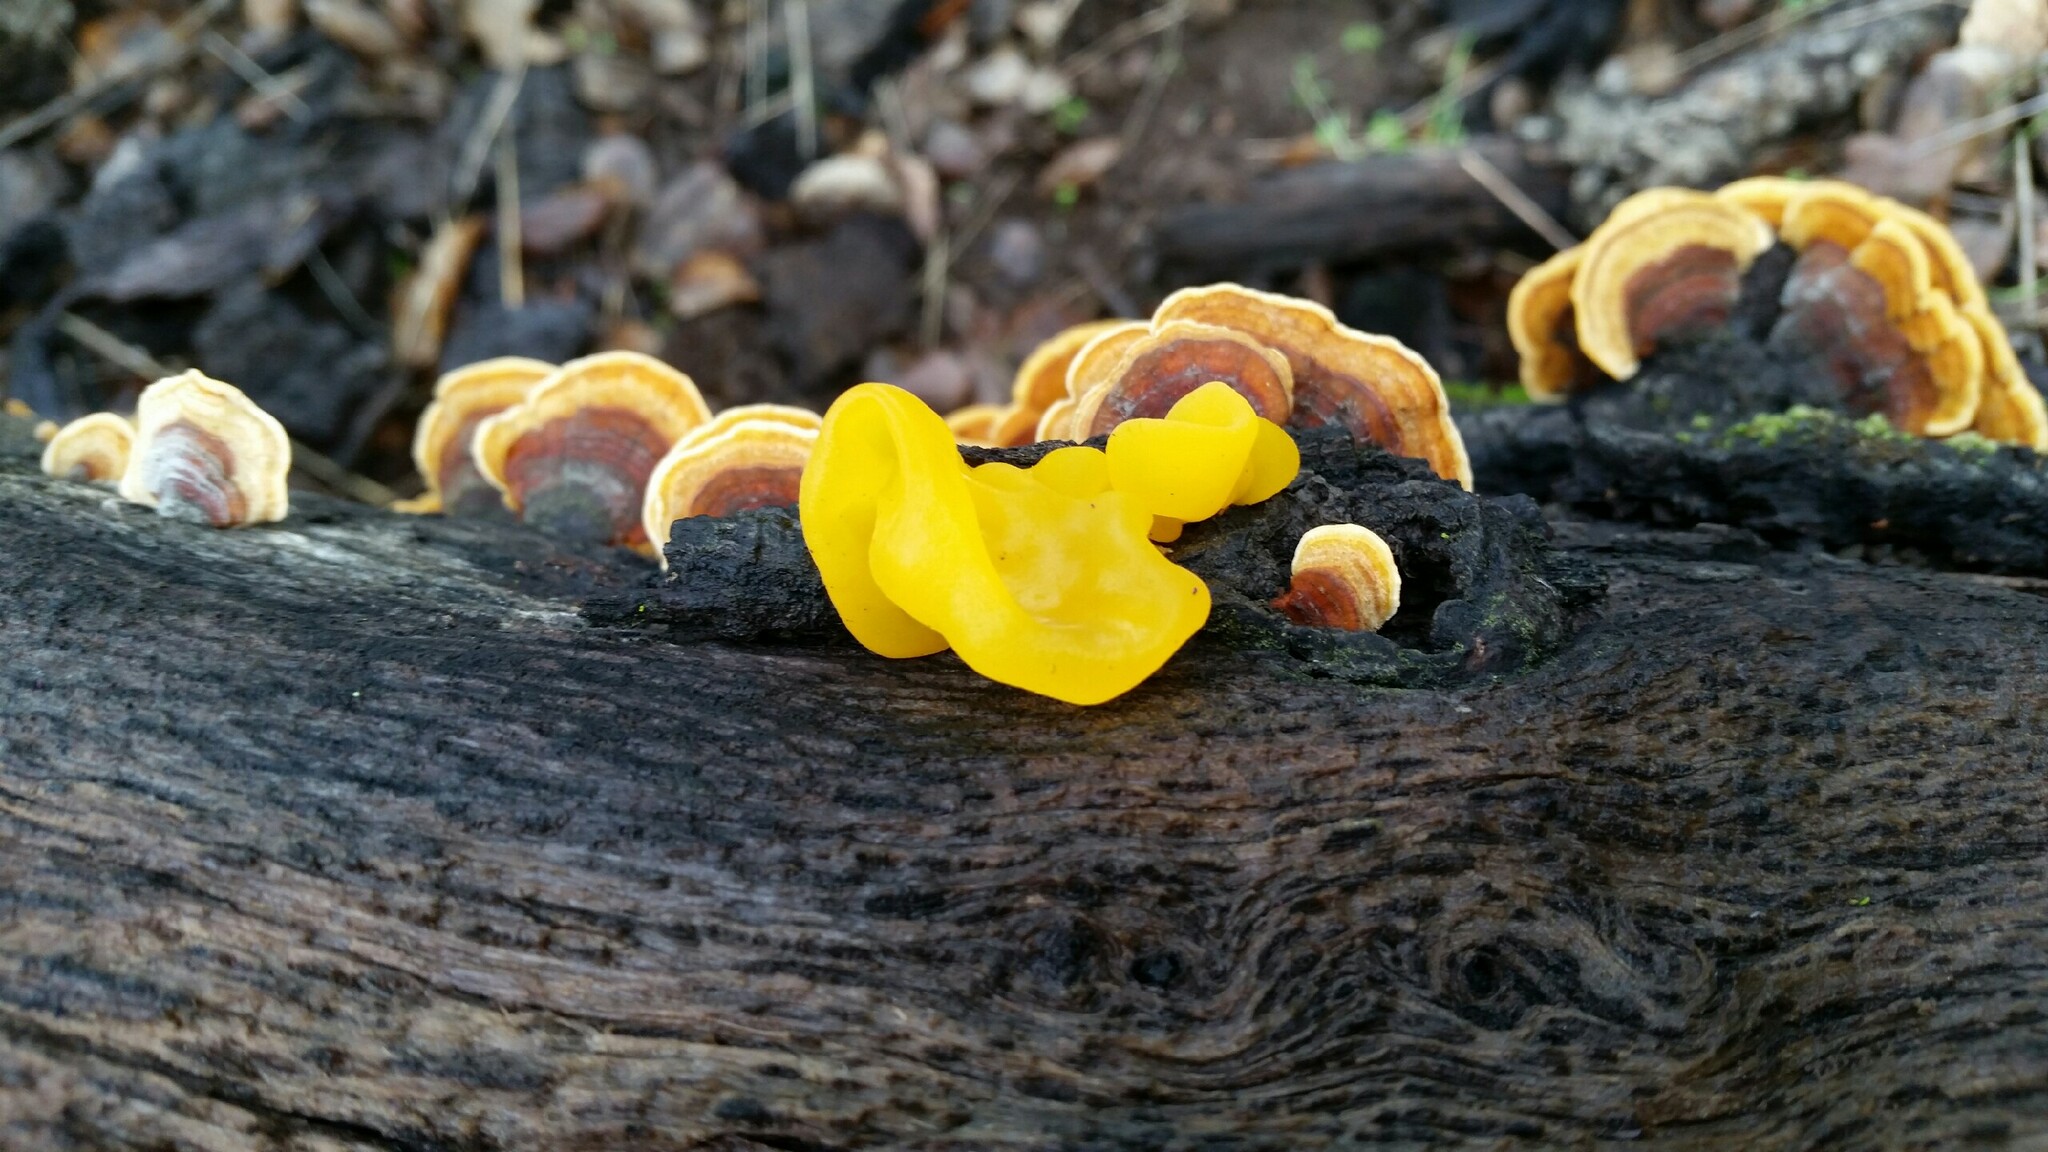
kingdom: Fungi
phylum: Basidiomycota
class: Tremellomycetes
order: Tremellales
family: Naemateliaceae
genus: Naematelia
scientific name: Naematelia aurantia
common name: Golden ear
